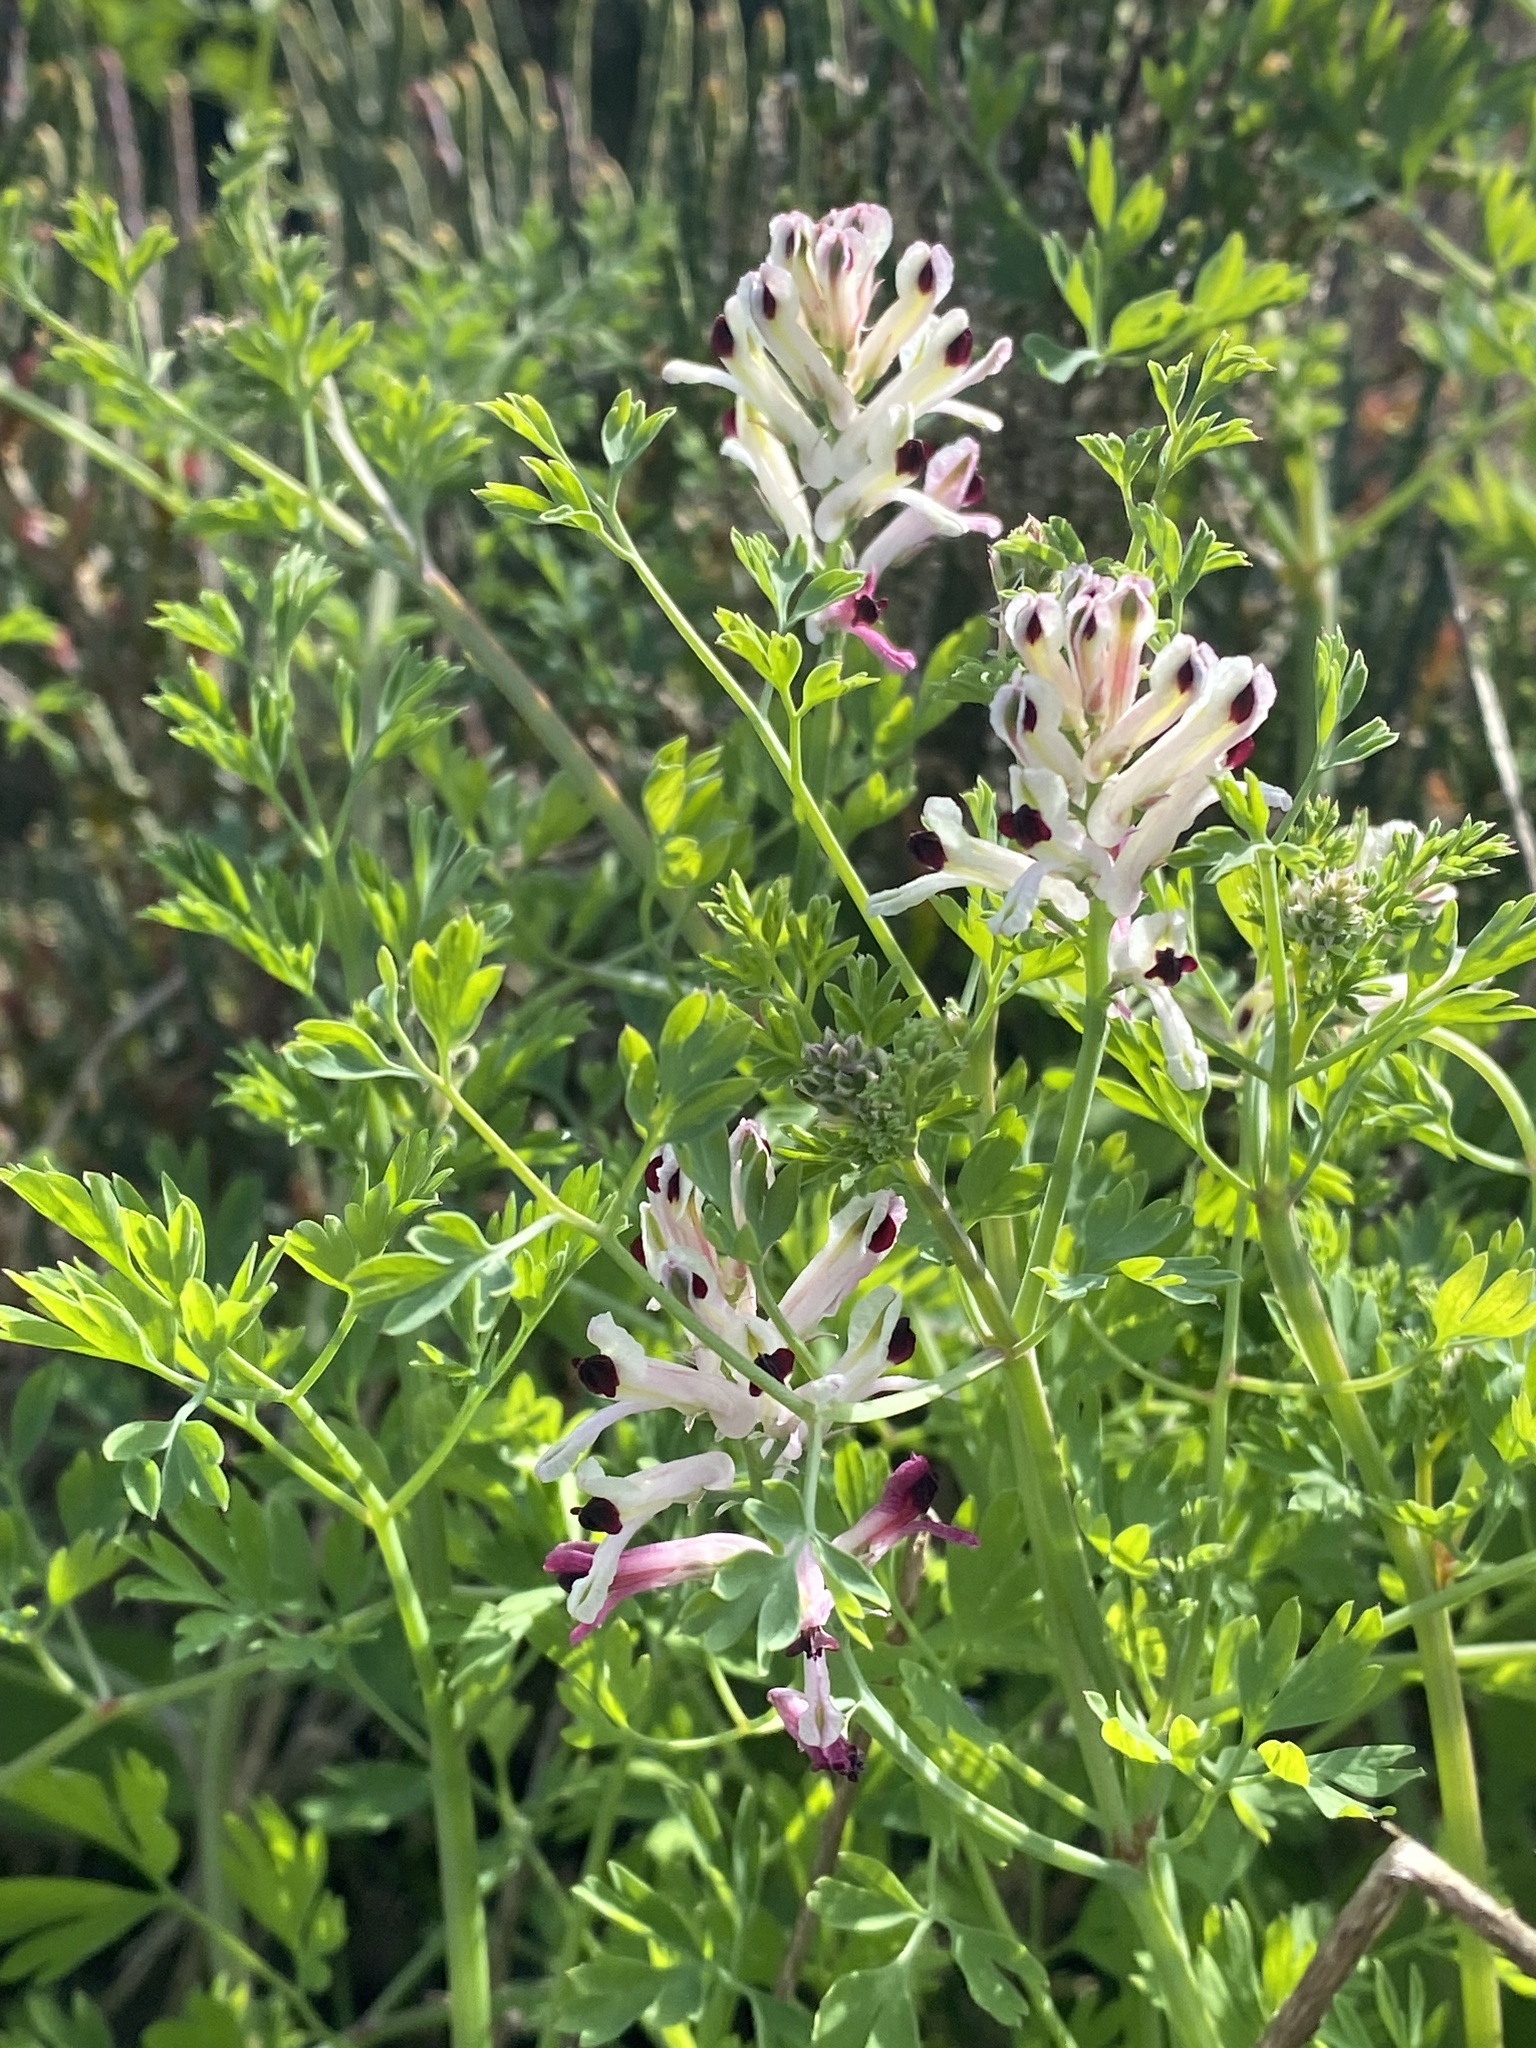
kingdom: Plantae
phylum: Tracheophyta
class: Magnoliopsida
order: Ranunculales
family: Papaveraceae
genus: Fumaria
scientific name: Fumaria agraria
